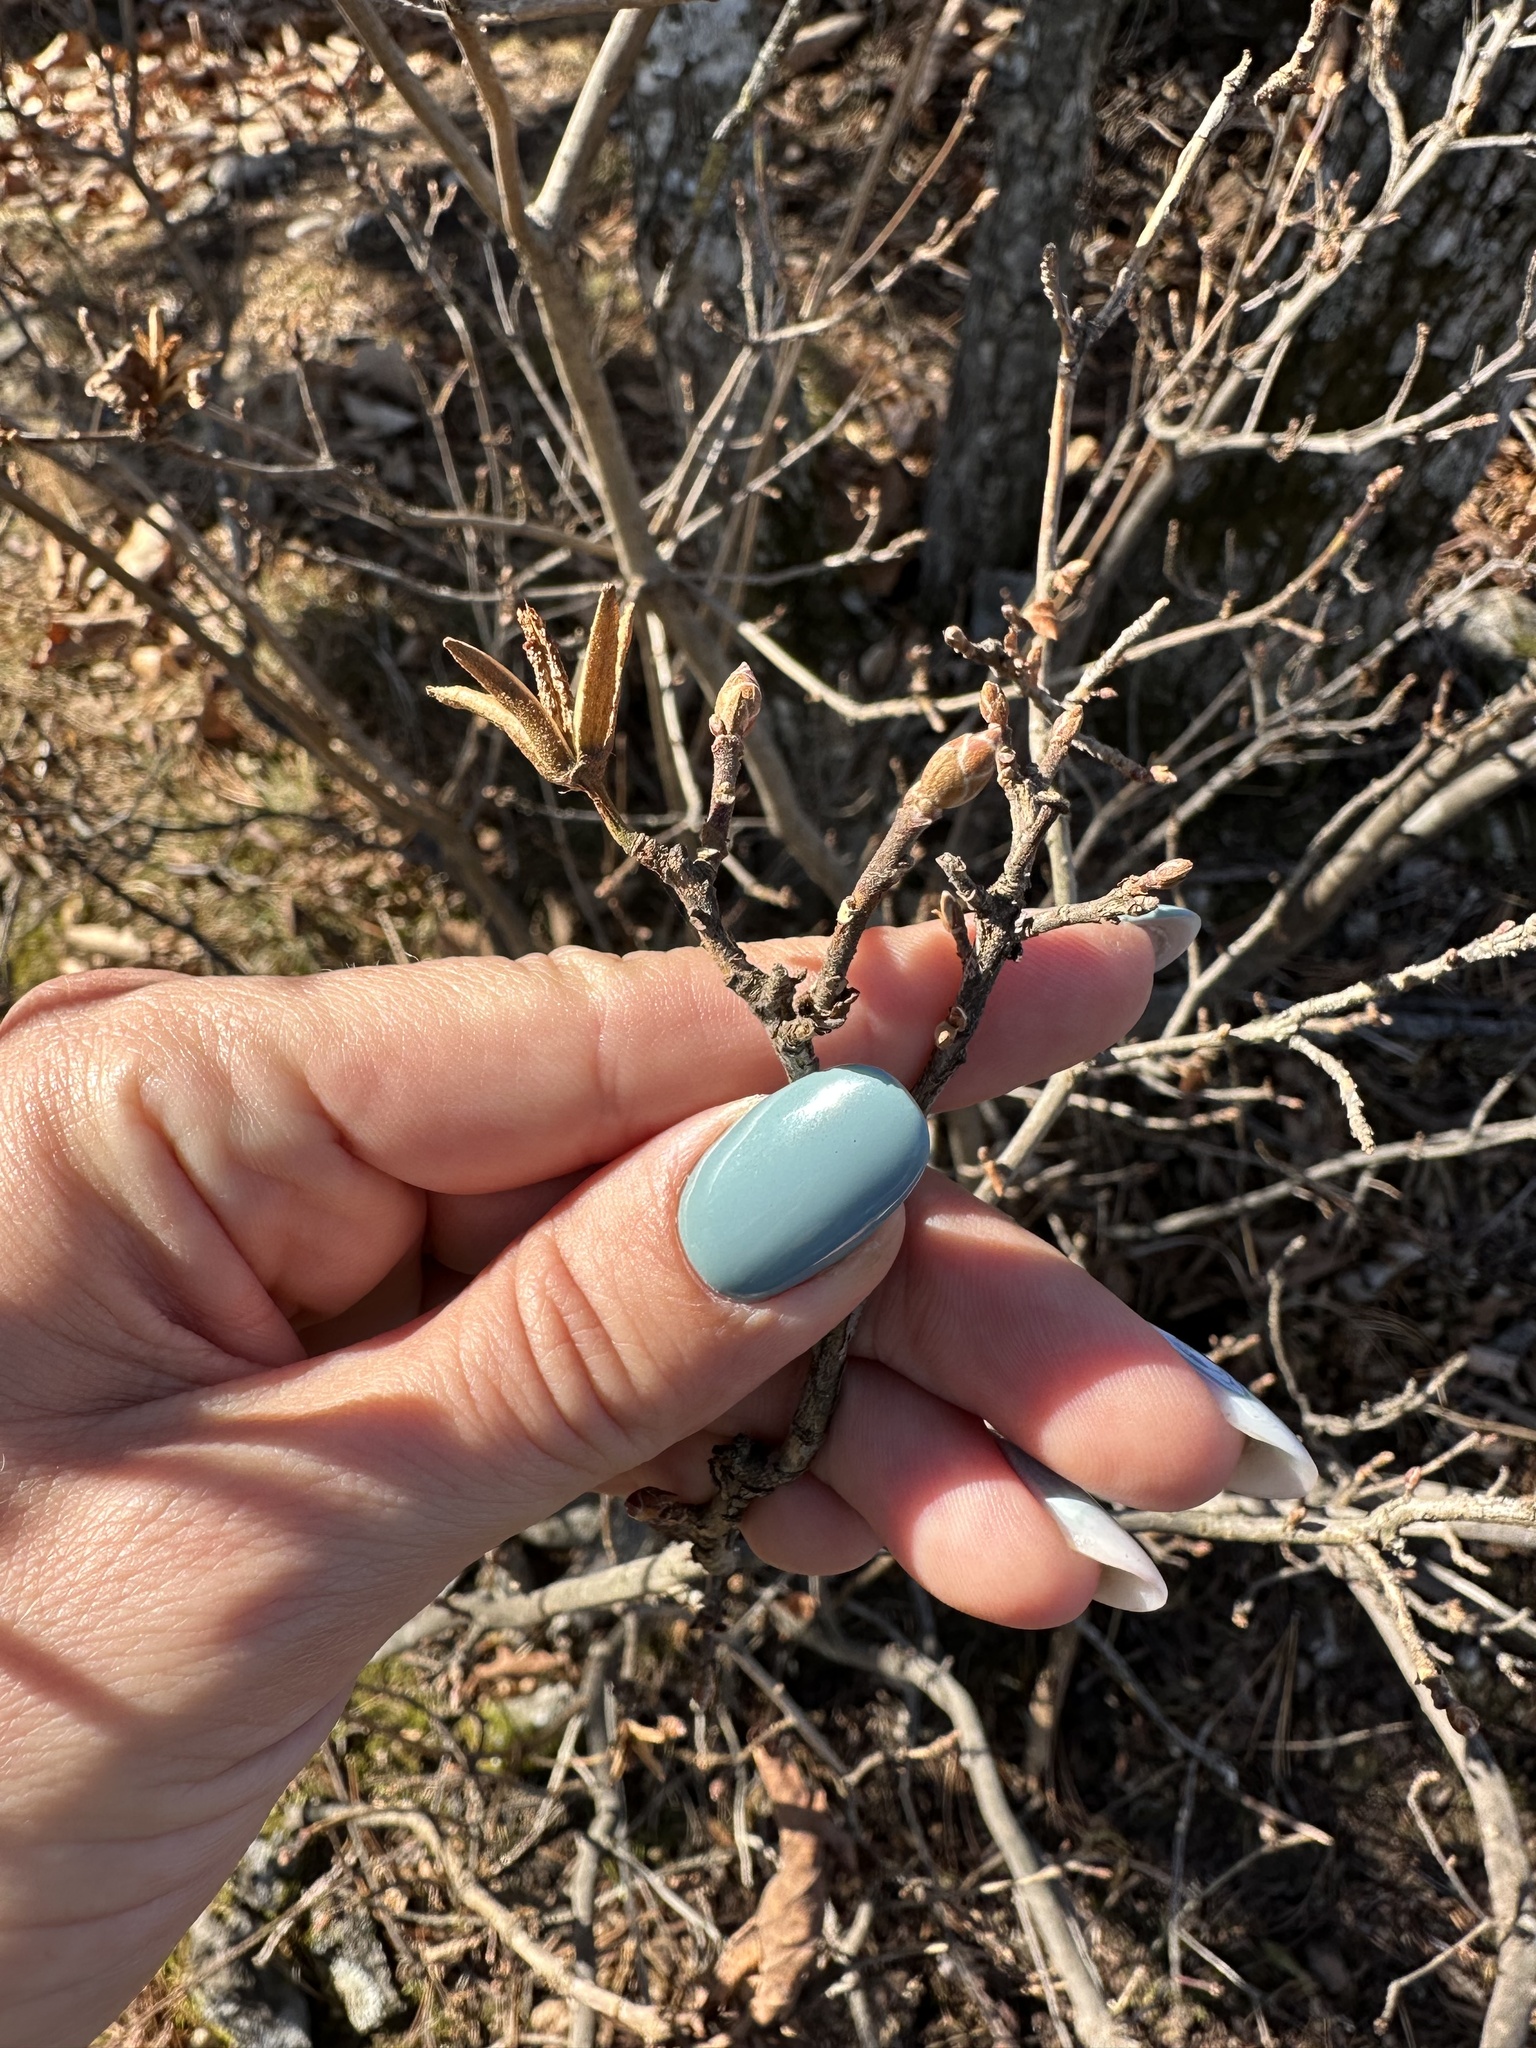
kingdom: Plantae
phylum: Tracheophyta
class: Magnoliopsida
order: Ericales
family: Ericaceae
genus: Rhododendron
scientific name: Rhododendron mucronulatum
